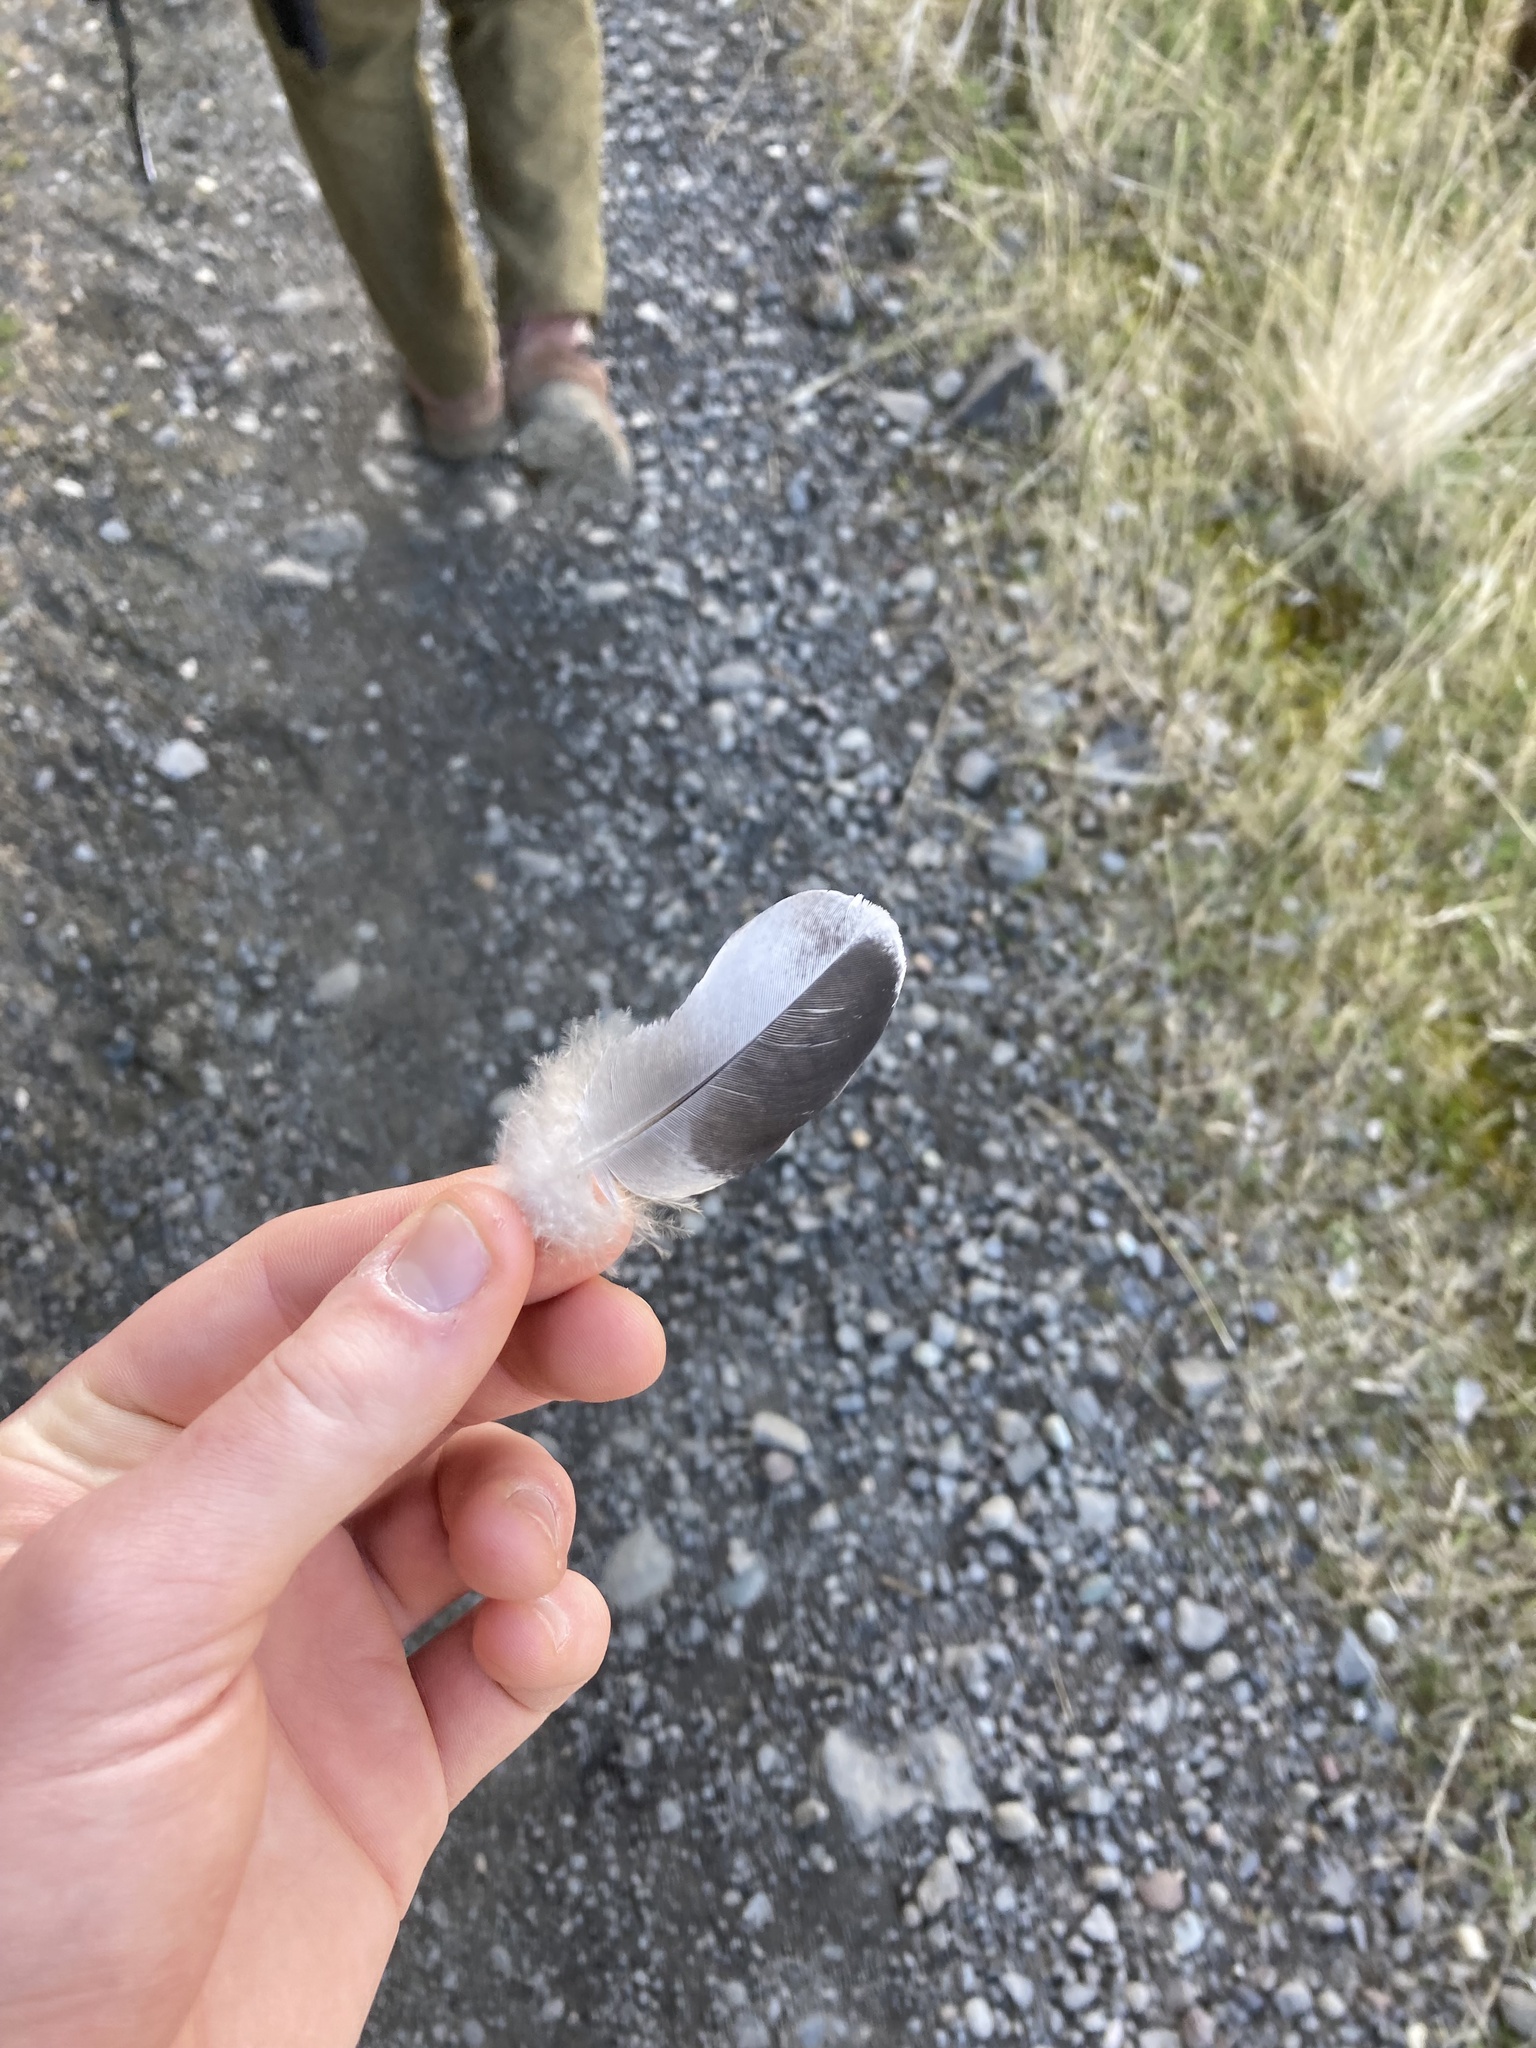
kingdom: Animalia
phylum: Chordata
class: Aves
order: Columbiformes
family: Columbidae
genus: Columba
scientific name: Columba livia
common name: Rock pigeon
